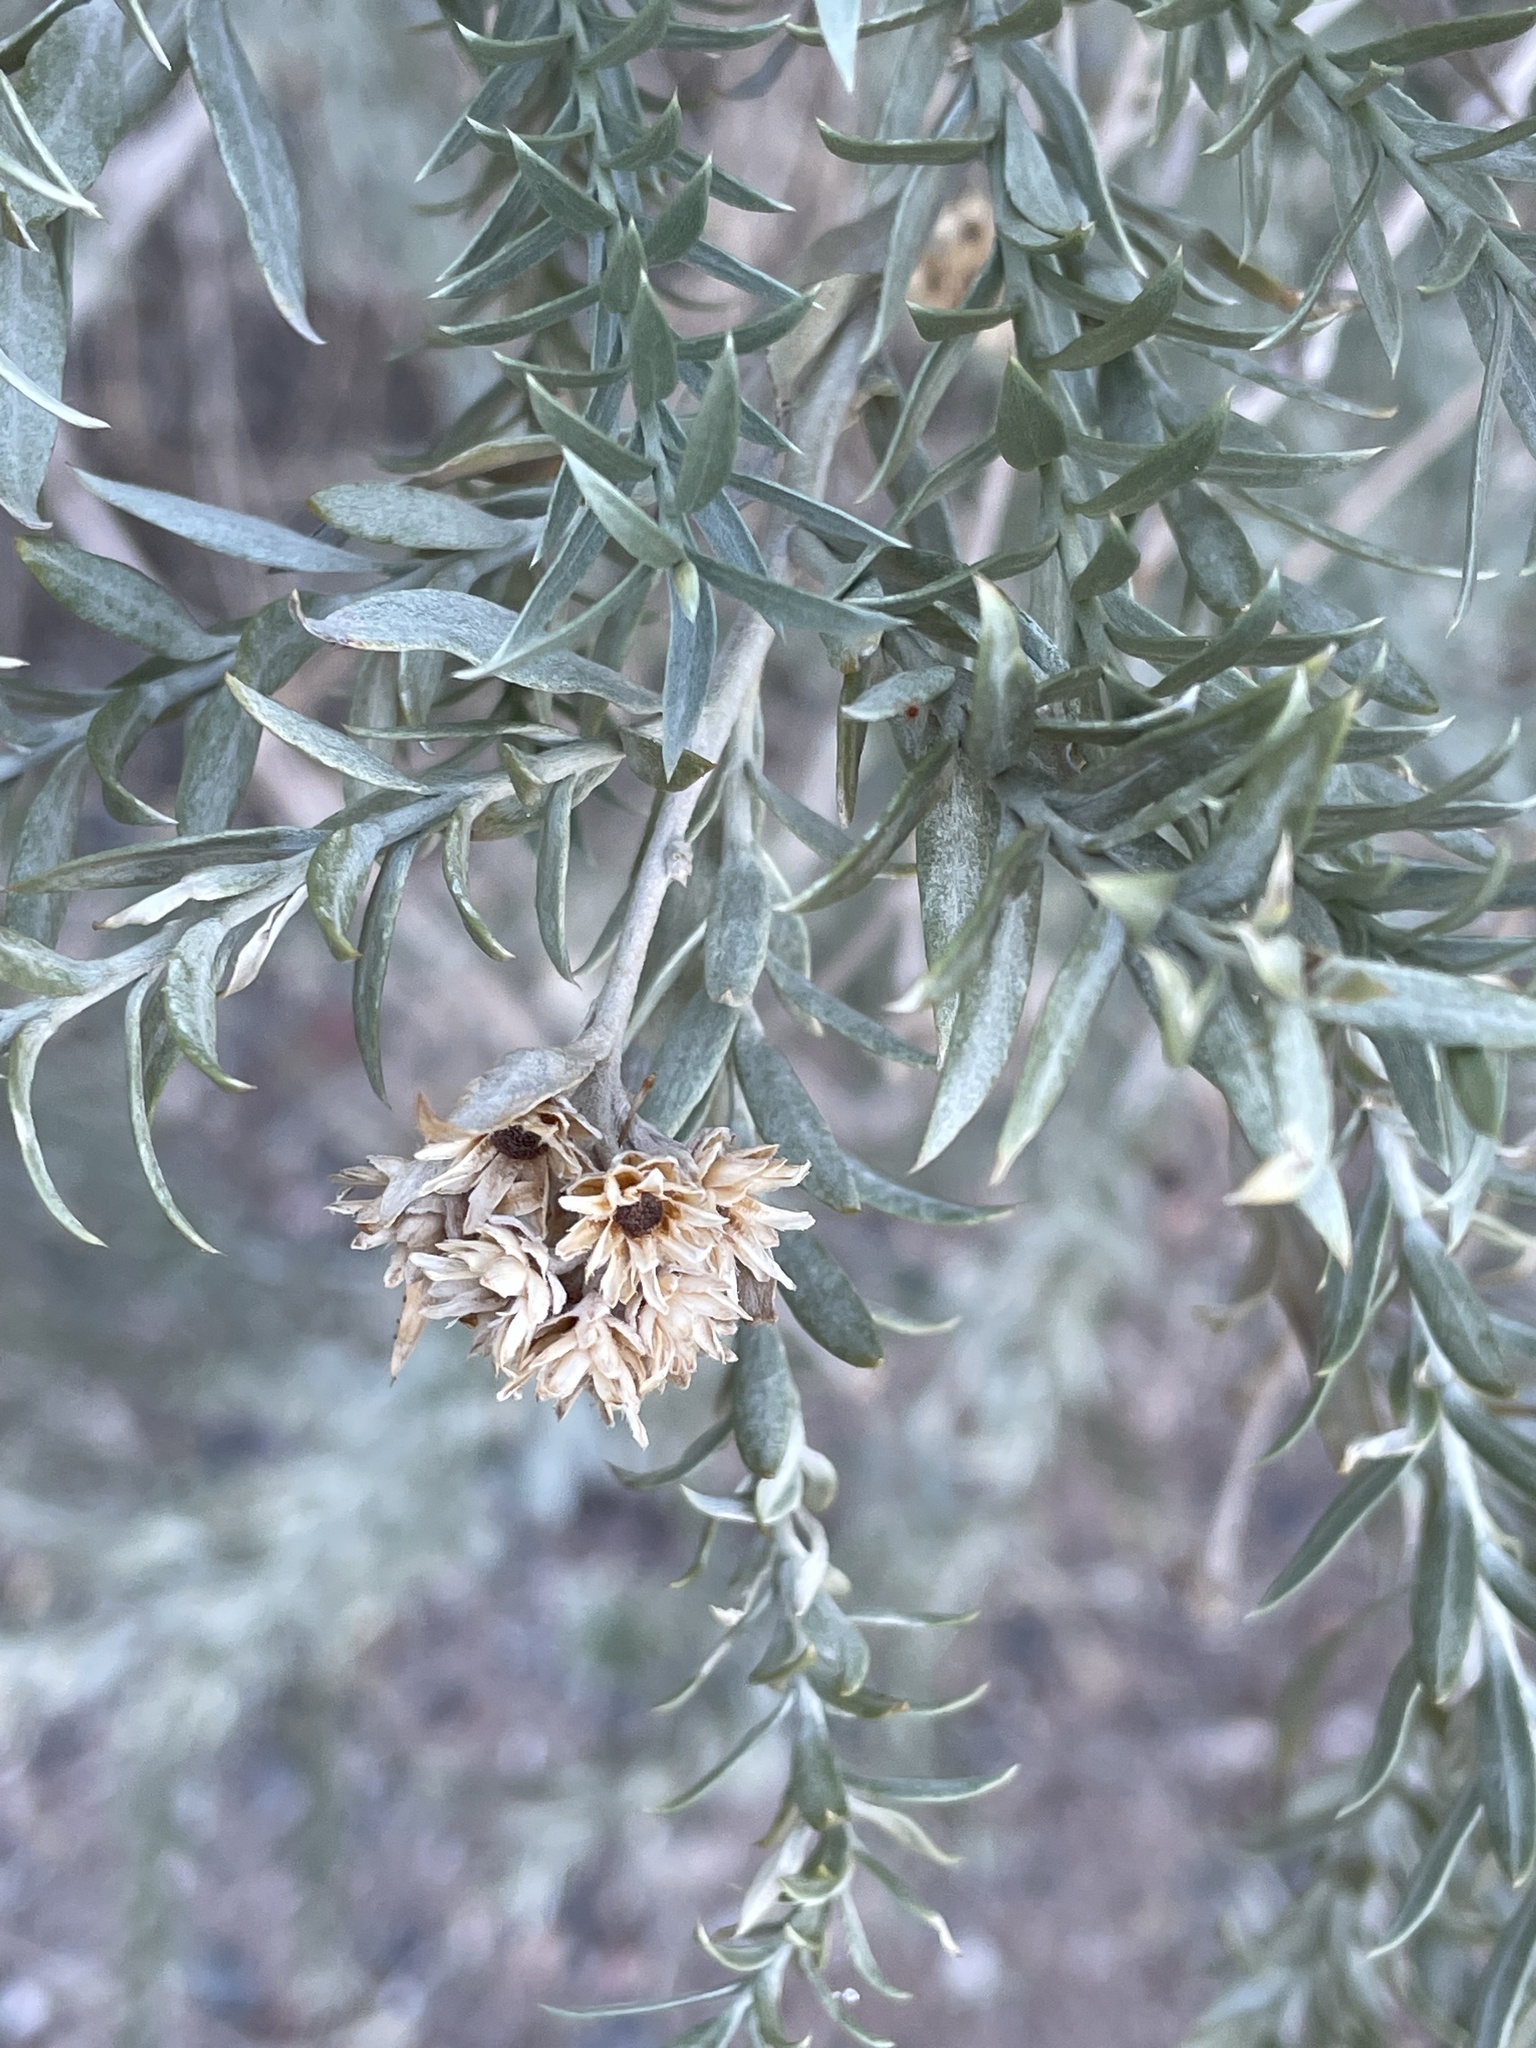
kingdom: Plantae
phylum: Tracheophyta
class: Magnoliopsida
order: Asterales
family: Asteraceae
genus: Pluchea
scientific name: Pluchea sericea
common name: Arrow-weed
